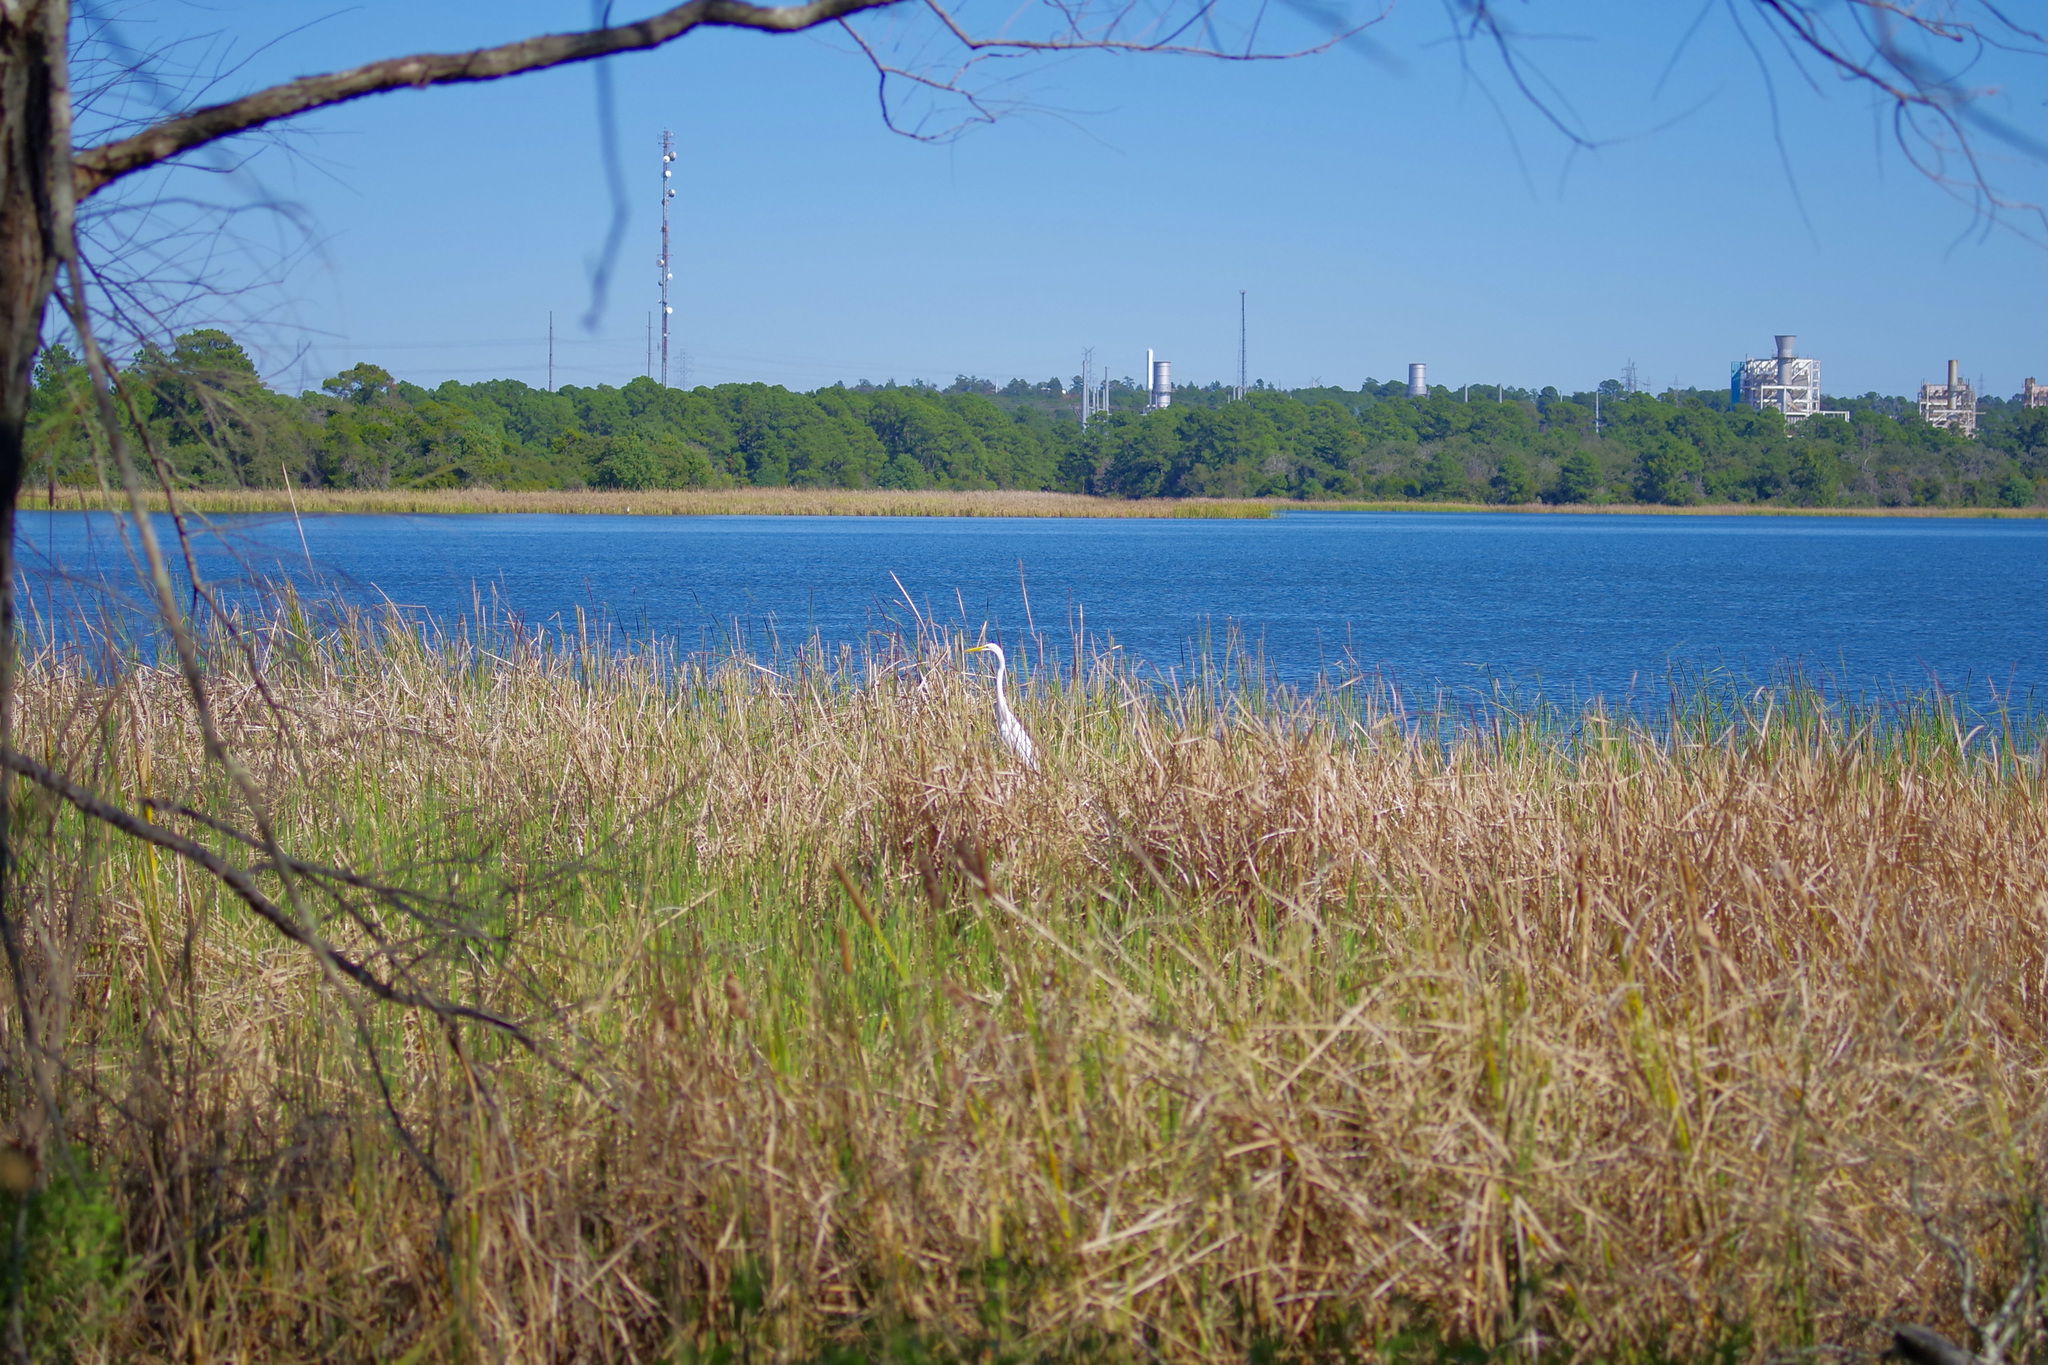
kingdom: Animalia
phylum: Chordata
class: Aves
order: Pelecaniformes
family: Ardeidae
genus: Ardea
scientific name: Ardea alba
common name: Great egret
